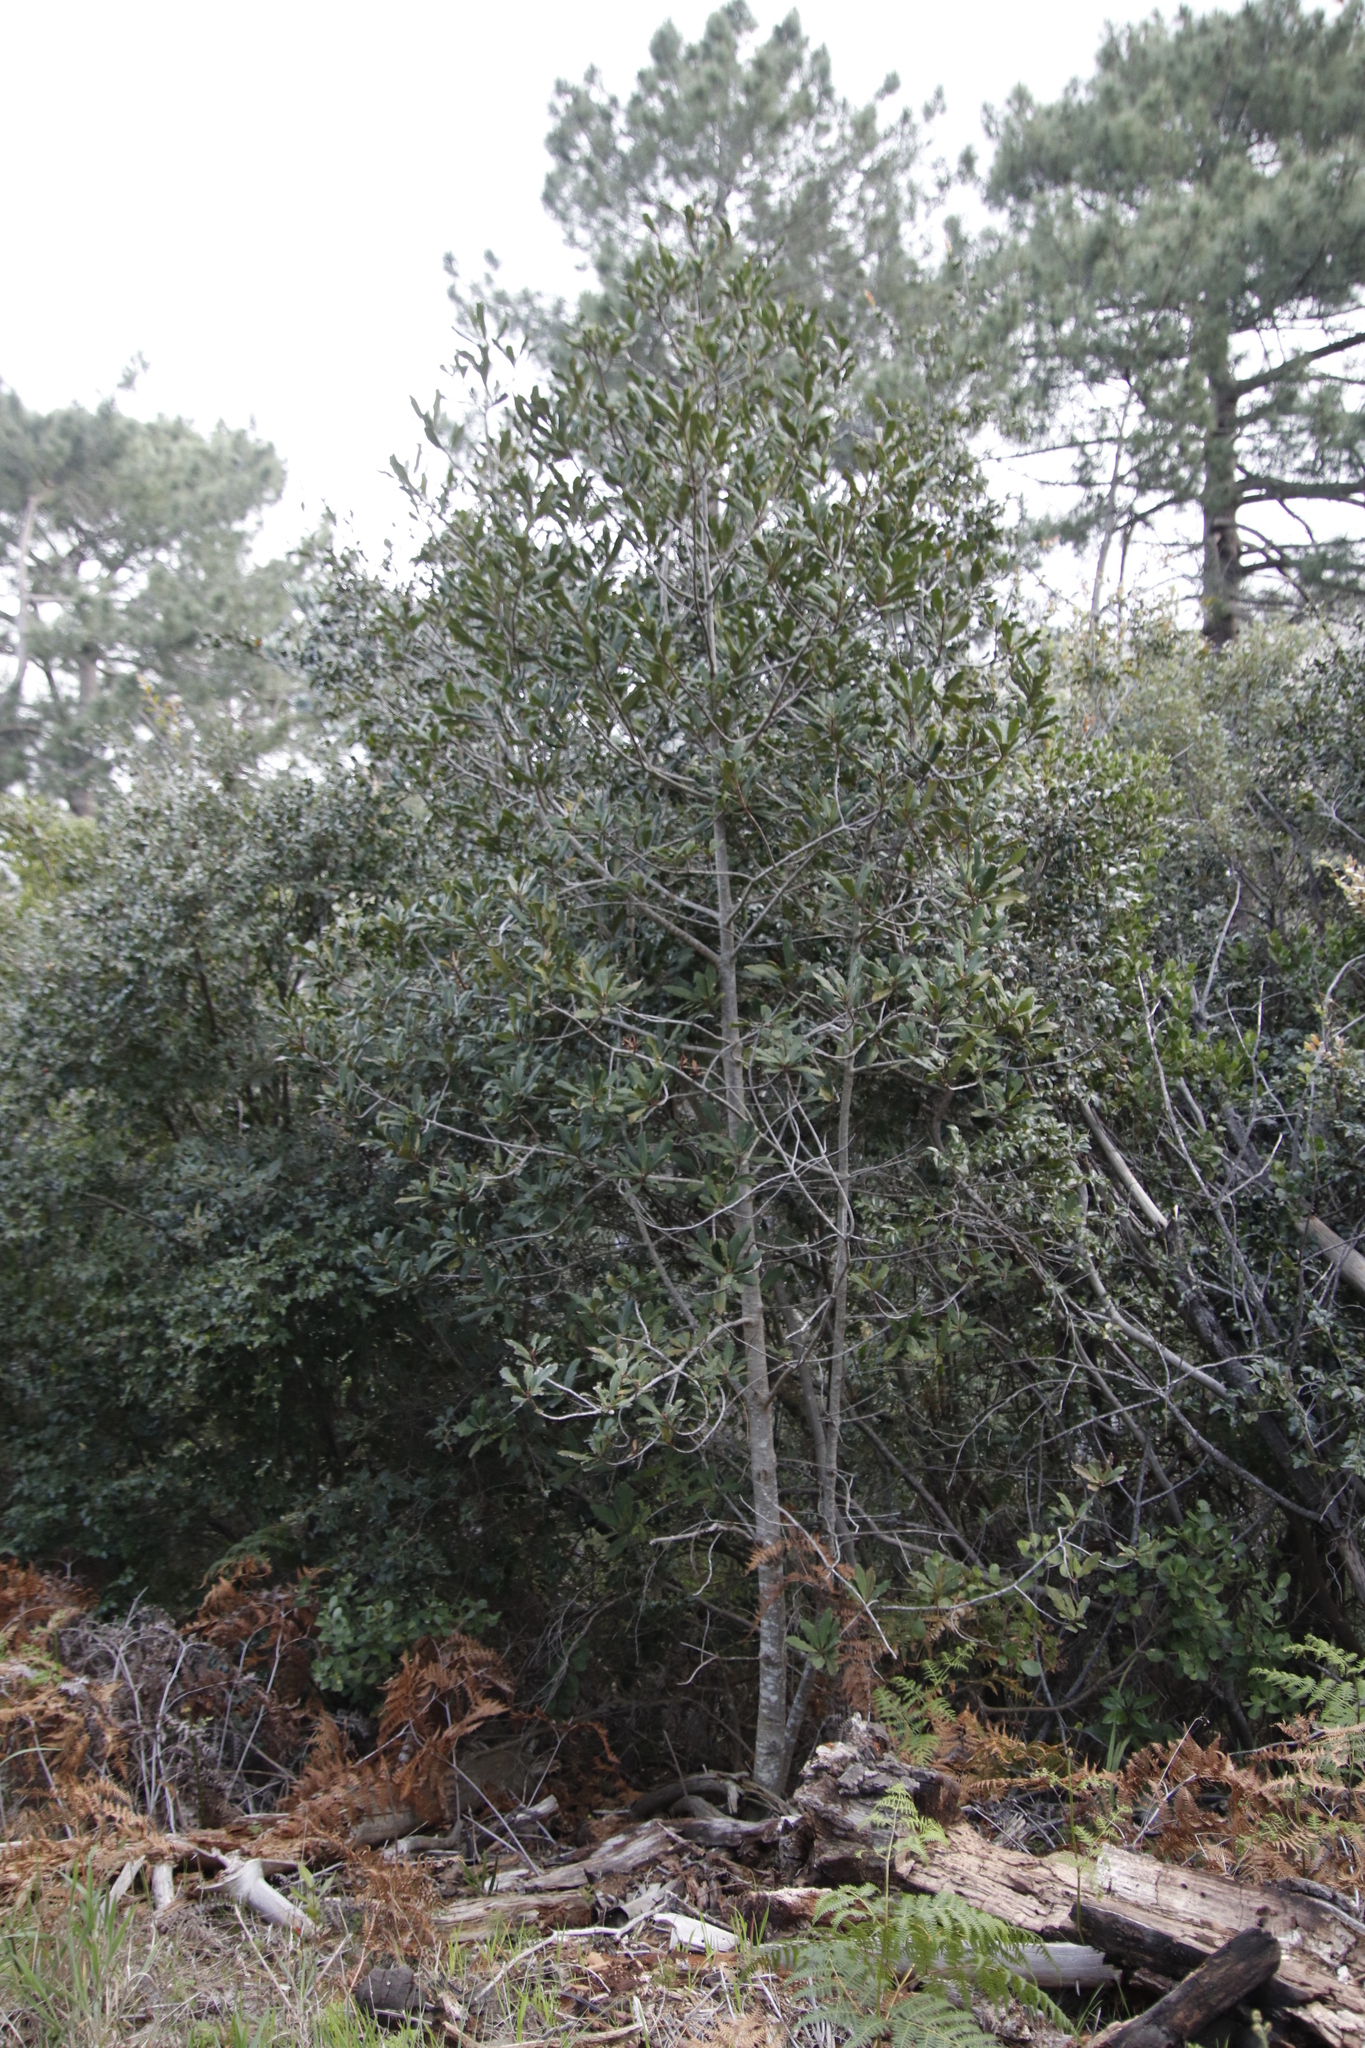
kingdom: Plantae
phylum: Tracheophyta
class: Magnoliopsida
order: Ericales
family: Primulaceae
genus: Myrsine
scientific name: Myrsine melanophloeos
